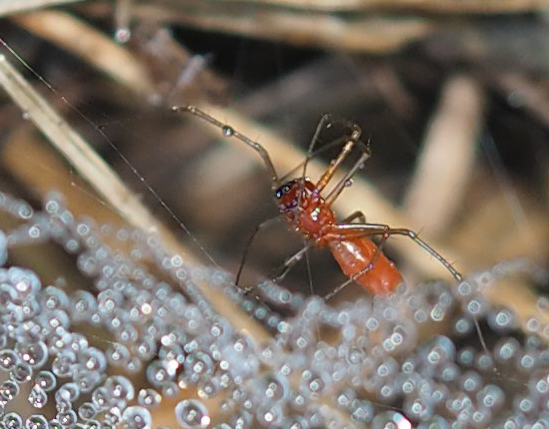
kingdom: Animalia
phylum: Arthropoda
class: Arachnida
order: Araneae
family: Linyphiidae
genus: Florinda
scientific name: Florinda coccinea
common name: Black-tailed red sheetweaver
